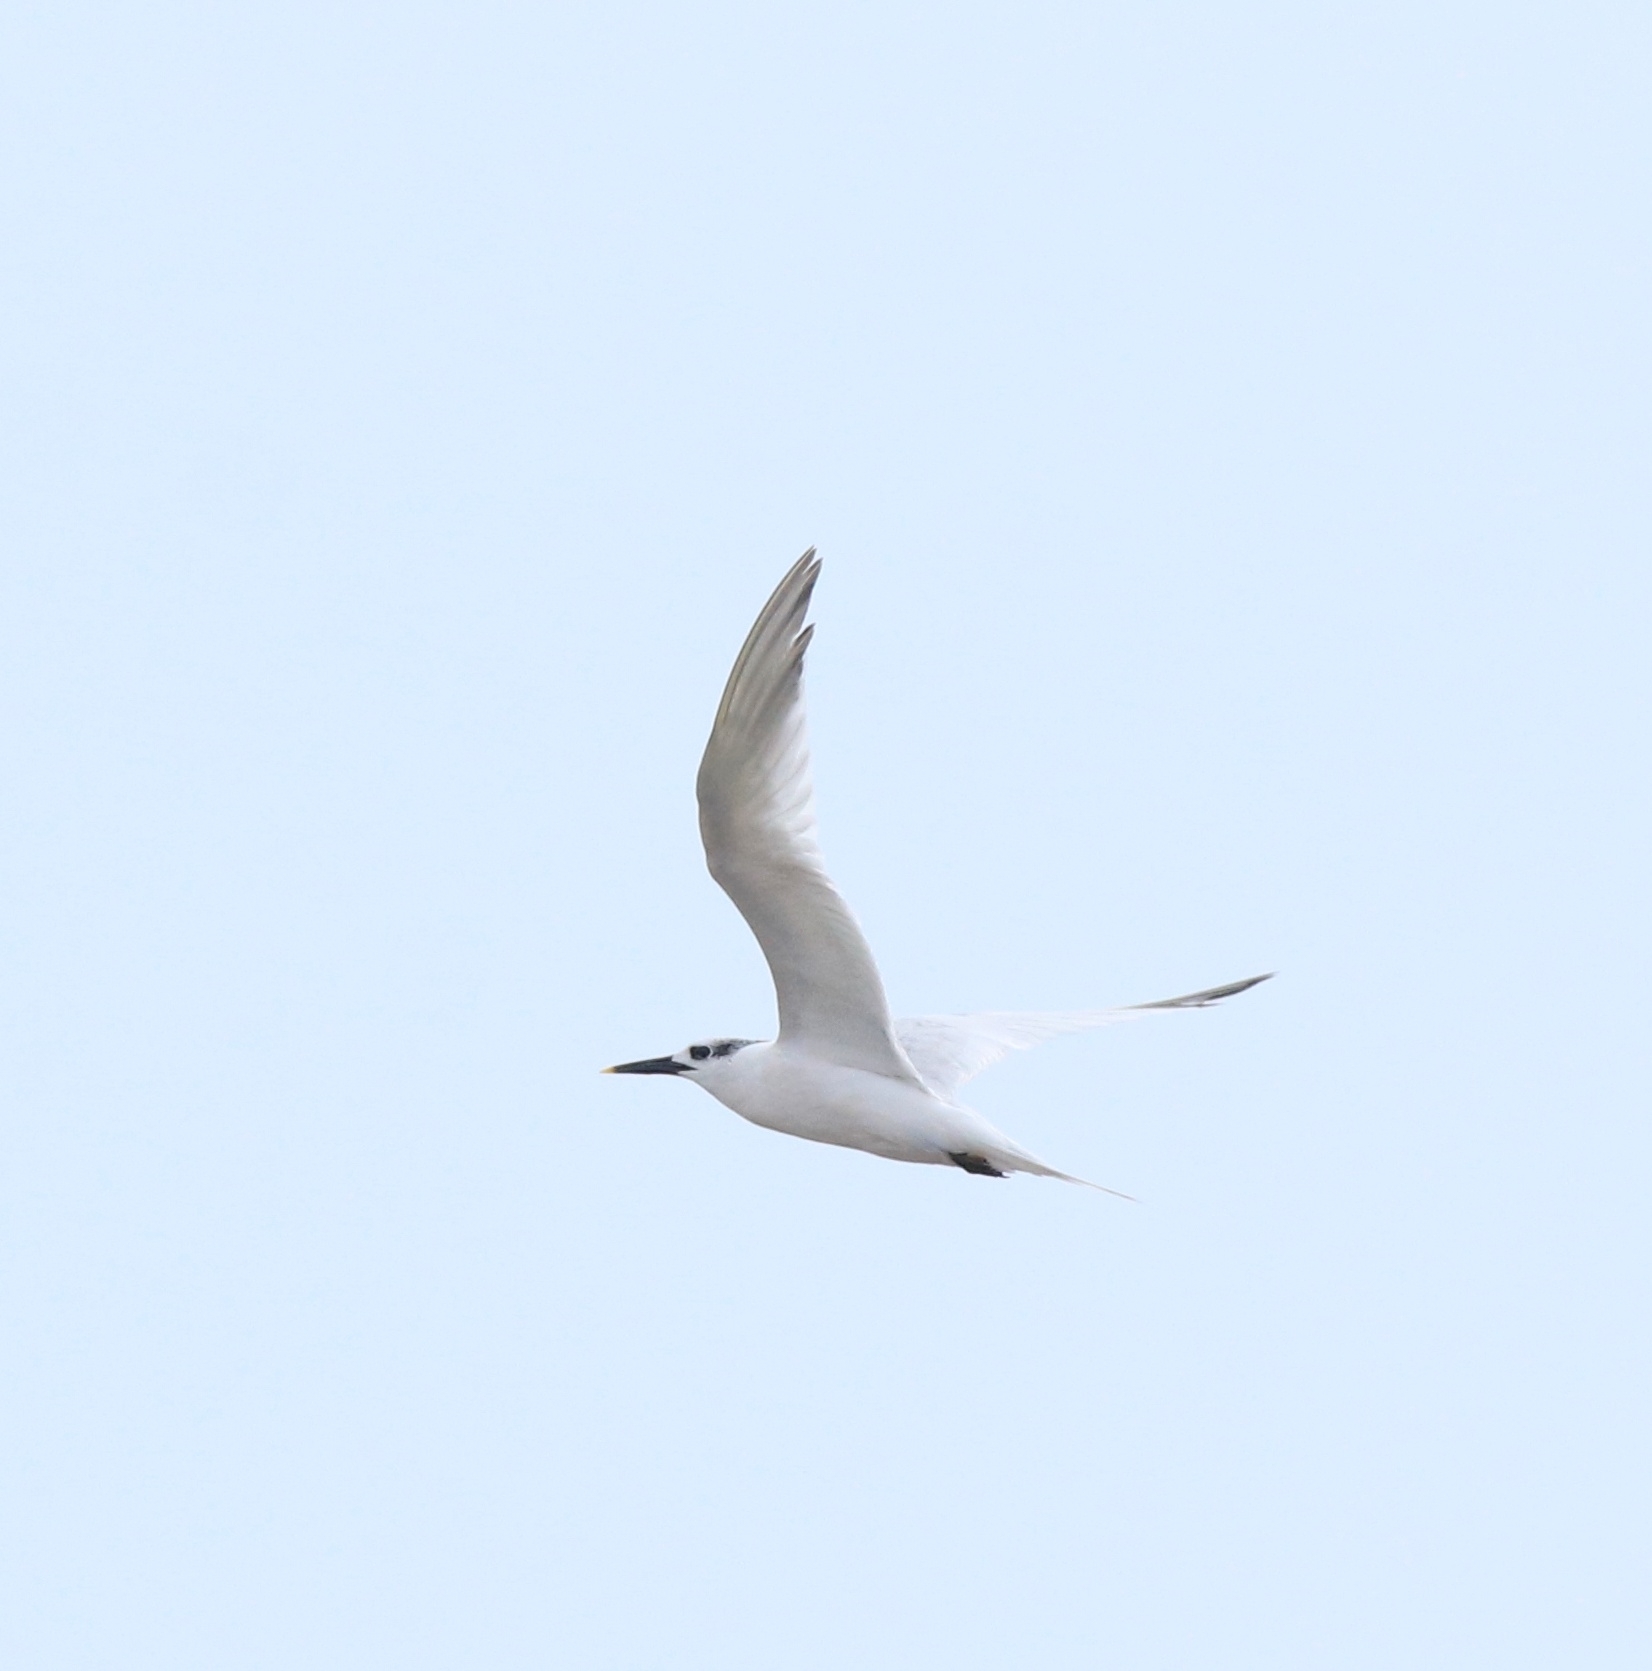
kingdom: Animalia
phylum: Chordata
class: Aves
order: Charadriiformes
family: Laridae
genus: Thalasseus
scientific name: Thalasseus sandvicensis
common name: Sandwich tern
